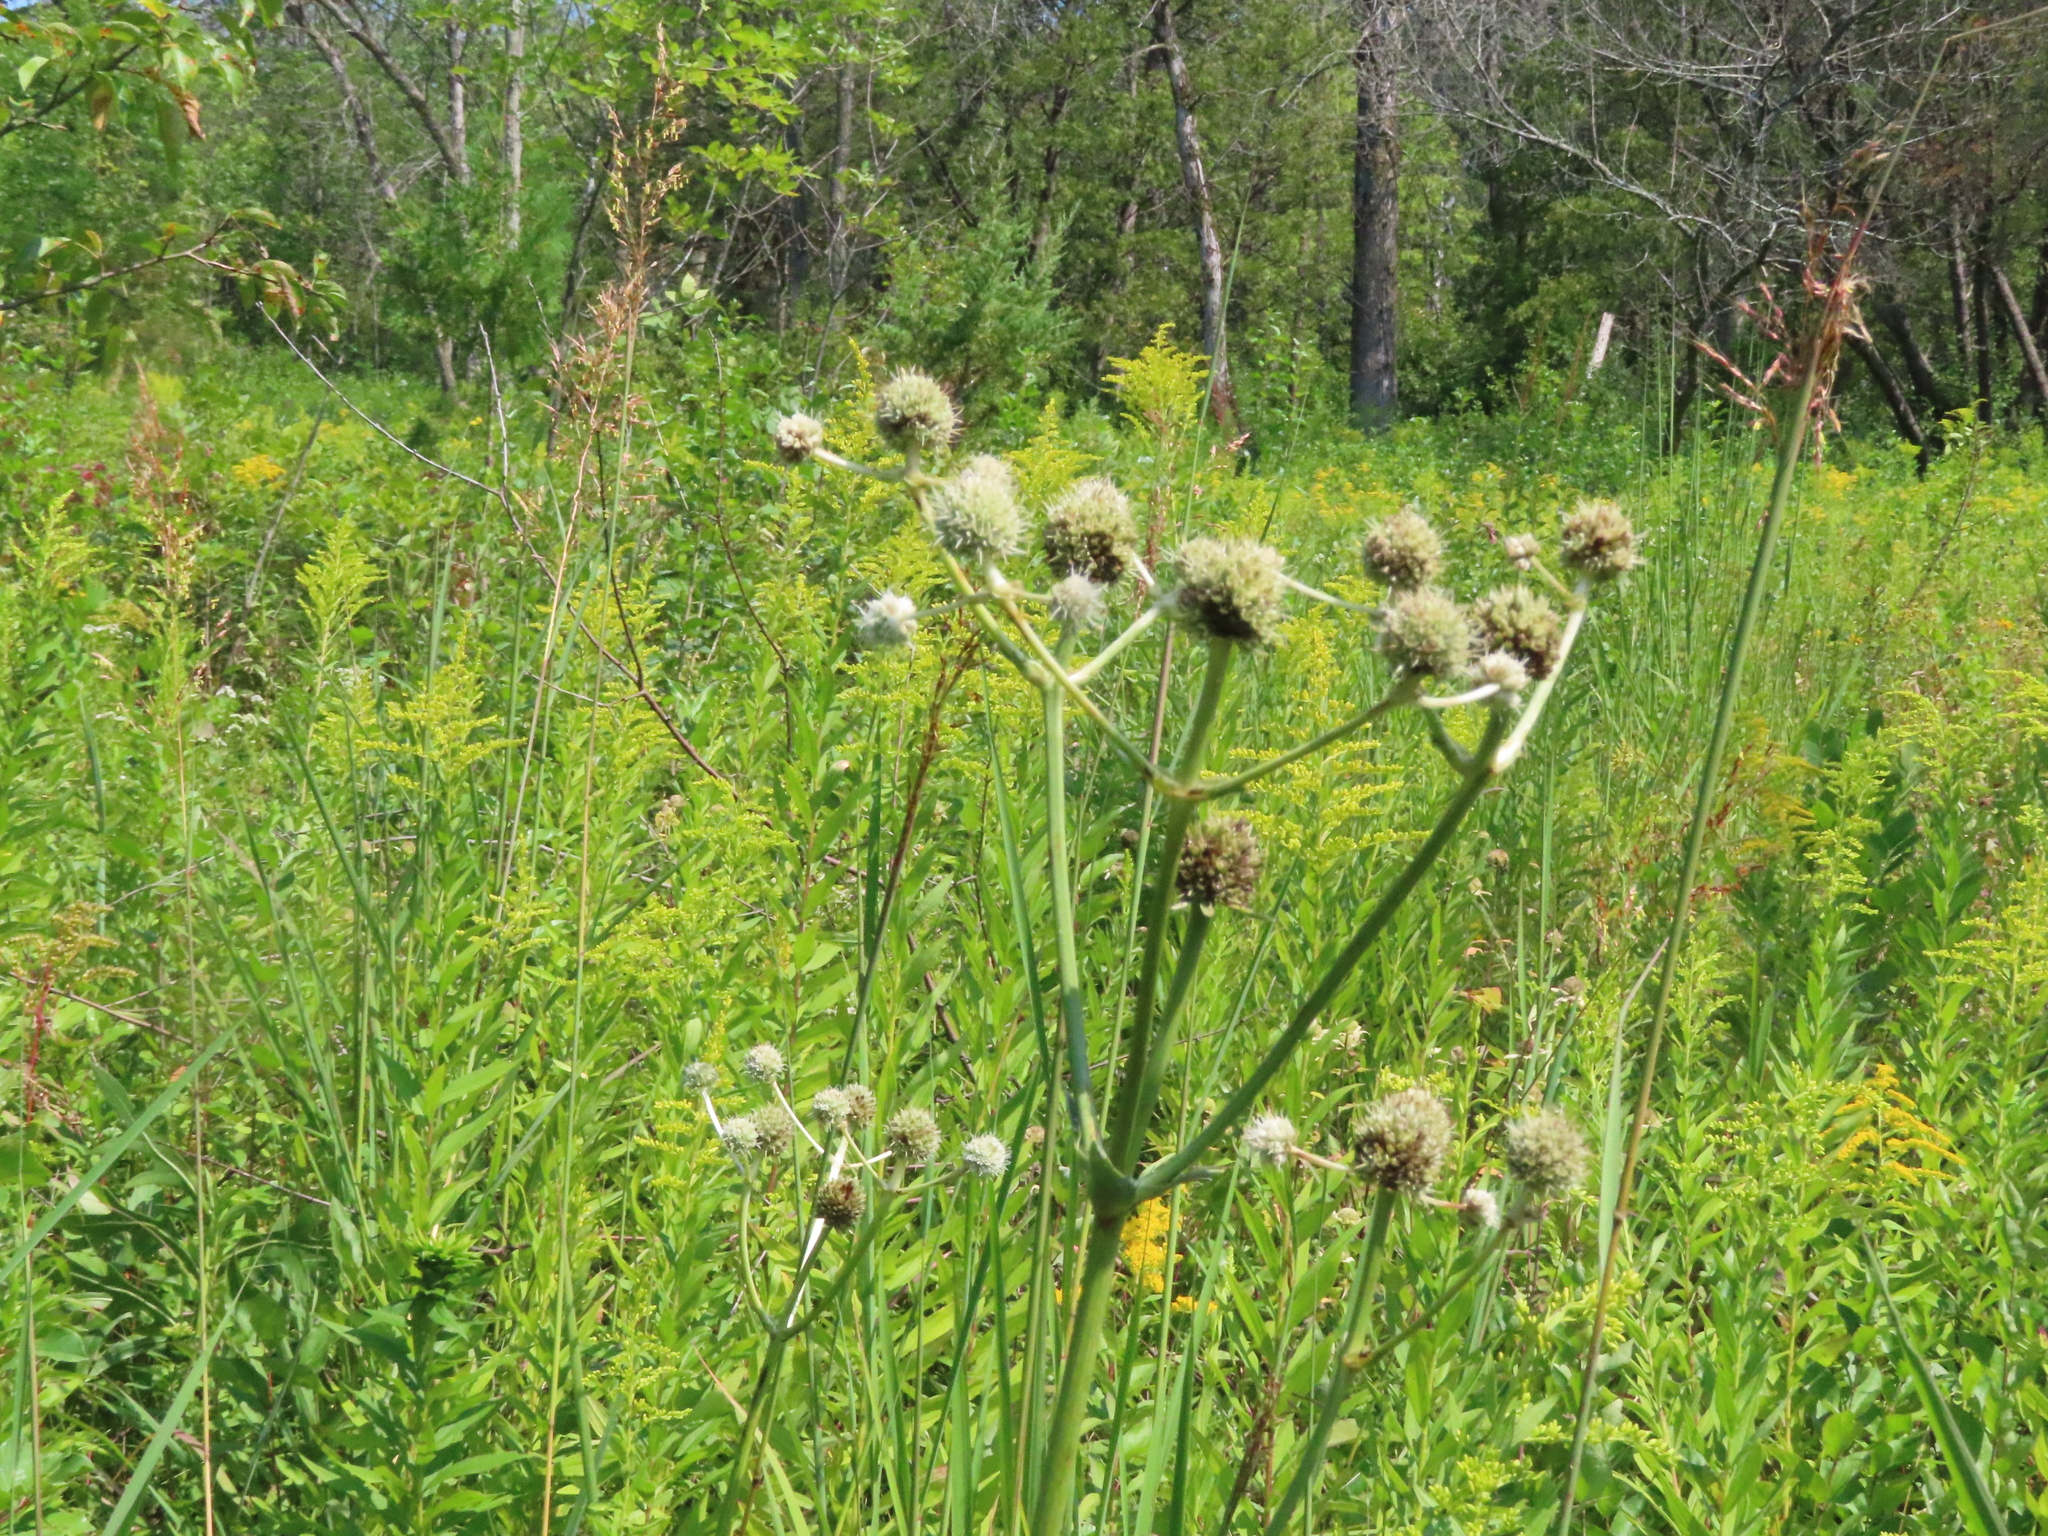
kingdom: Plantae
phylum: Tracheophyta
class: Magnoliopsida
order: Apiales
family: Apiaceae
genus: Eryngium
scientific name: Eryngium yuccifolium
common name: Button eryngo
